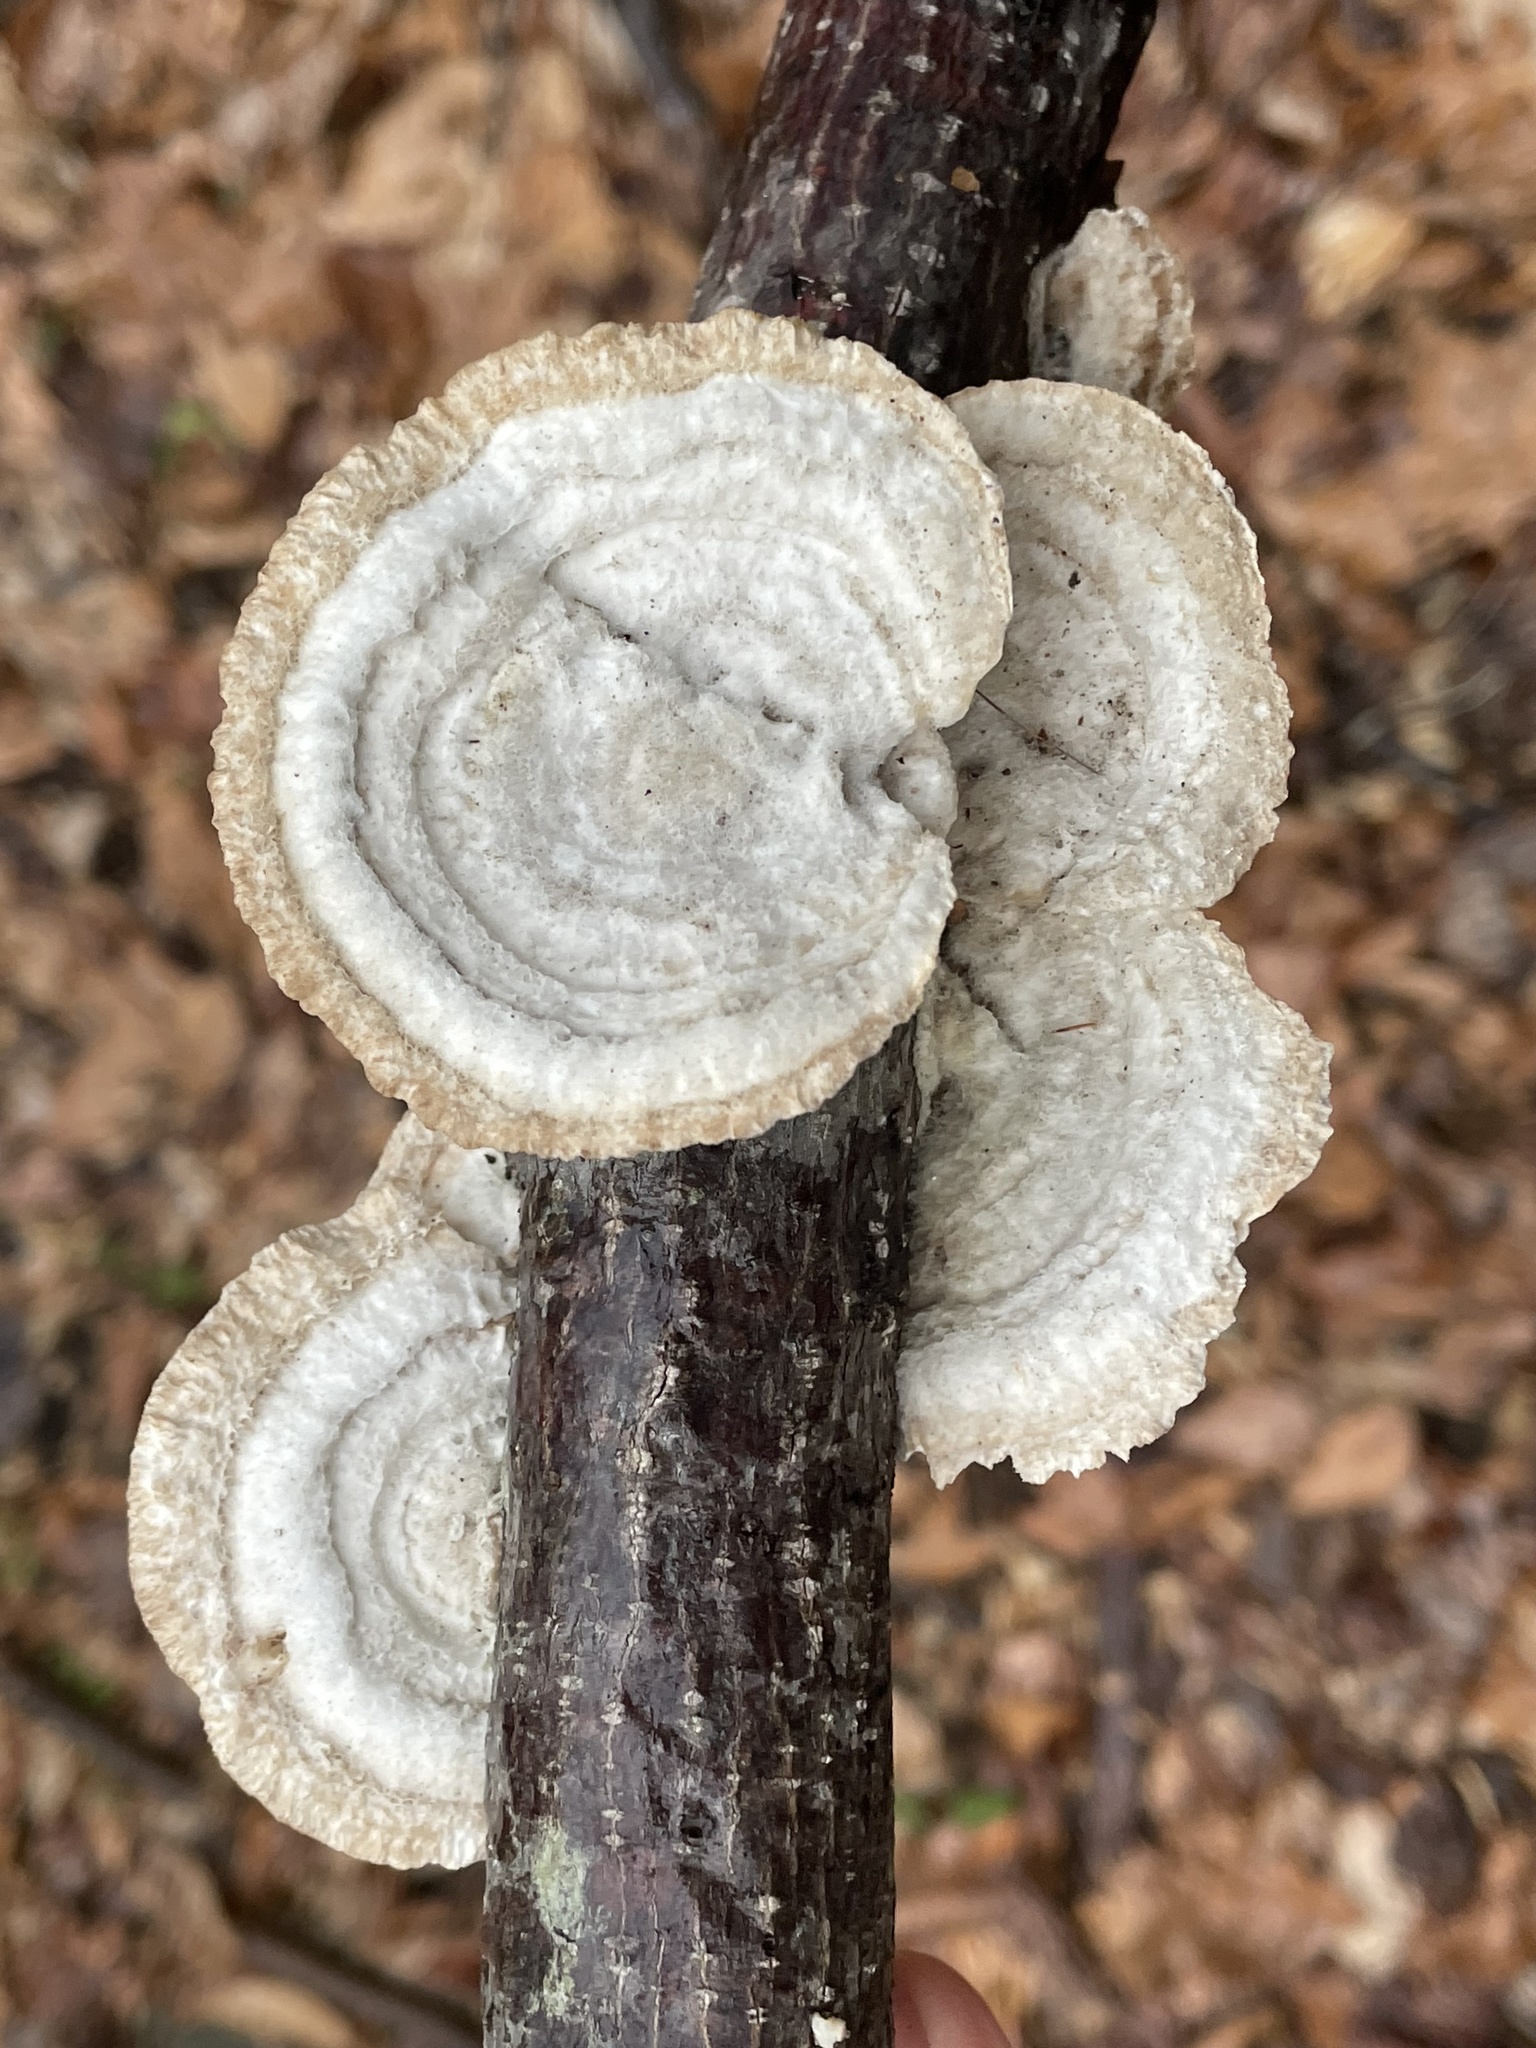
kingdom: Fungi
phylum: Basidiomycota
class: Agaricomycetes
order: Polyporales
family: Polyporaceae
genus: Trametes
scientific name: Trametes hirsuta
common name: Hairy bracket
